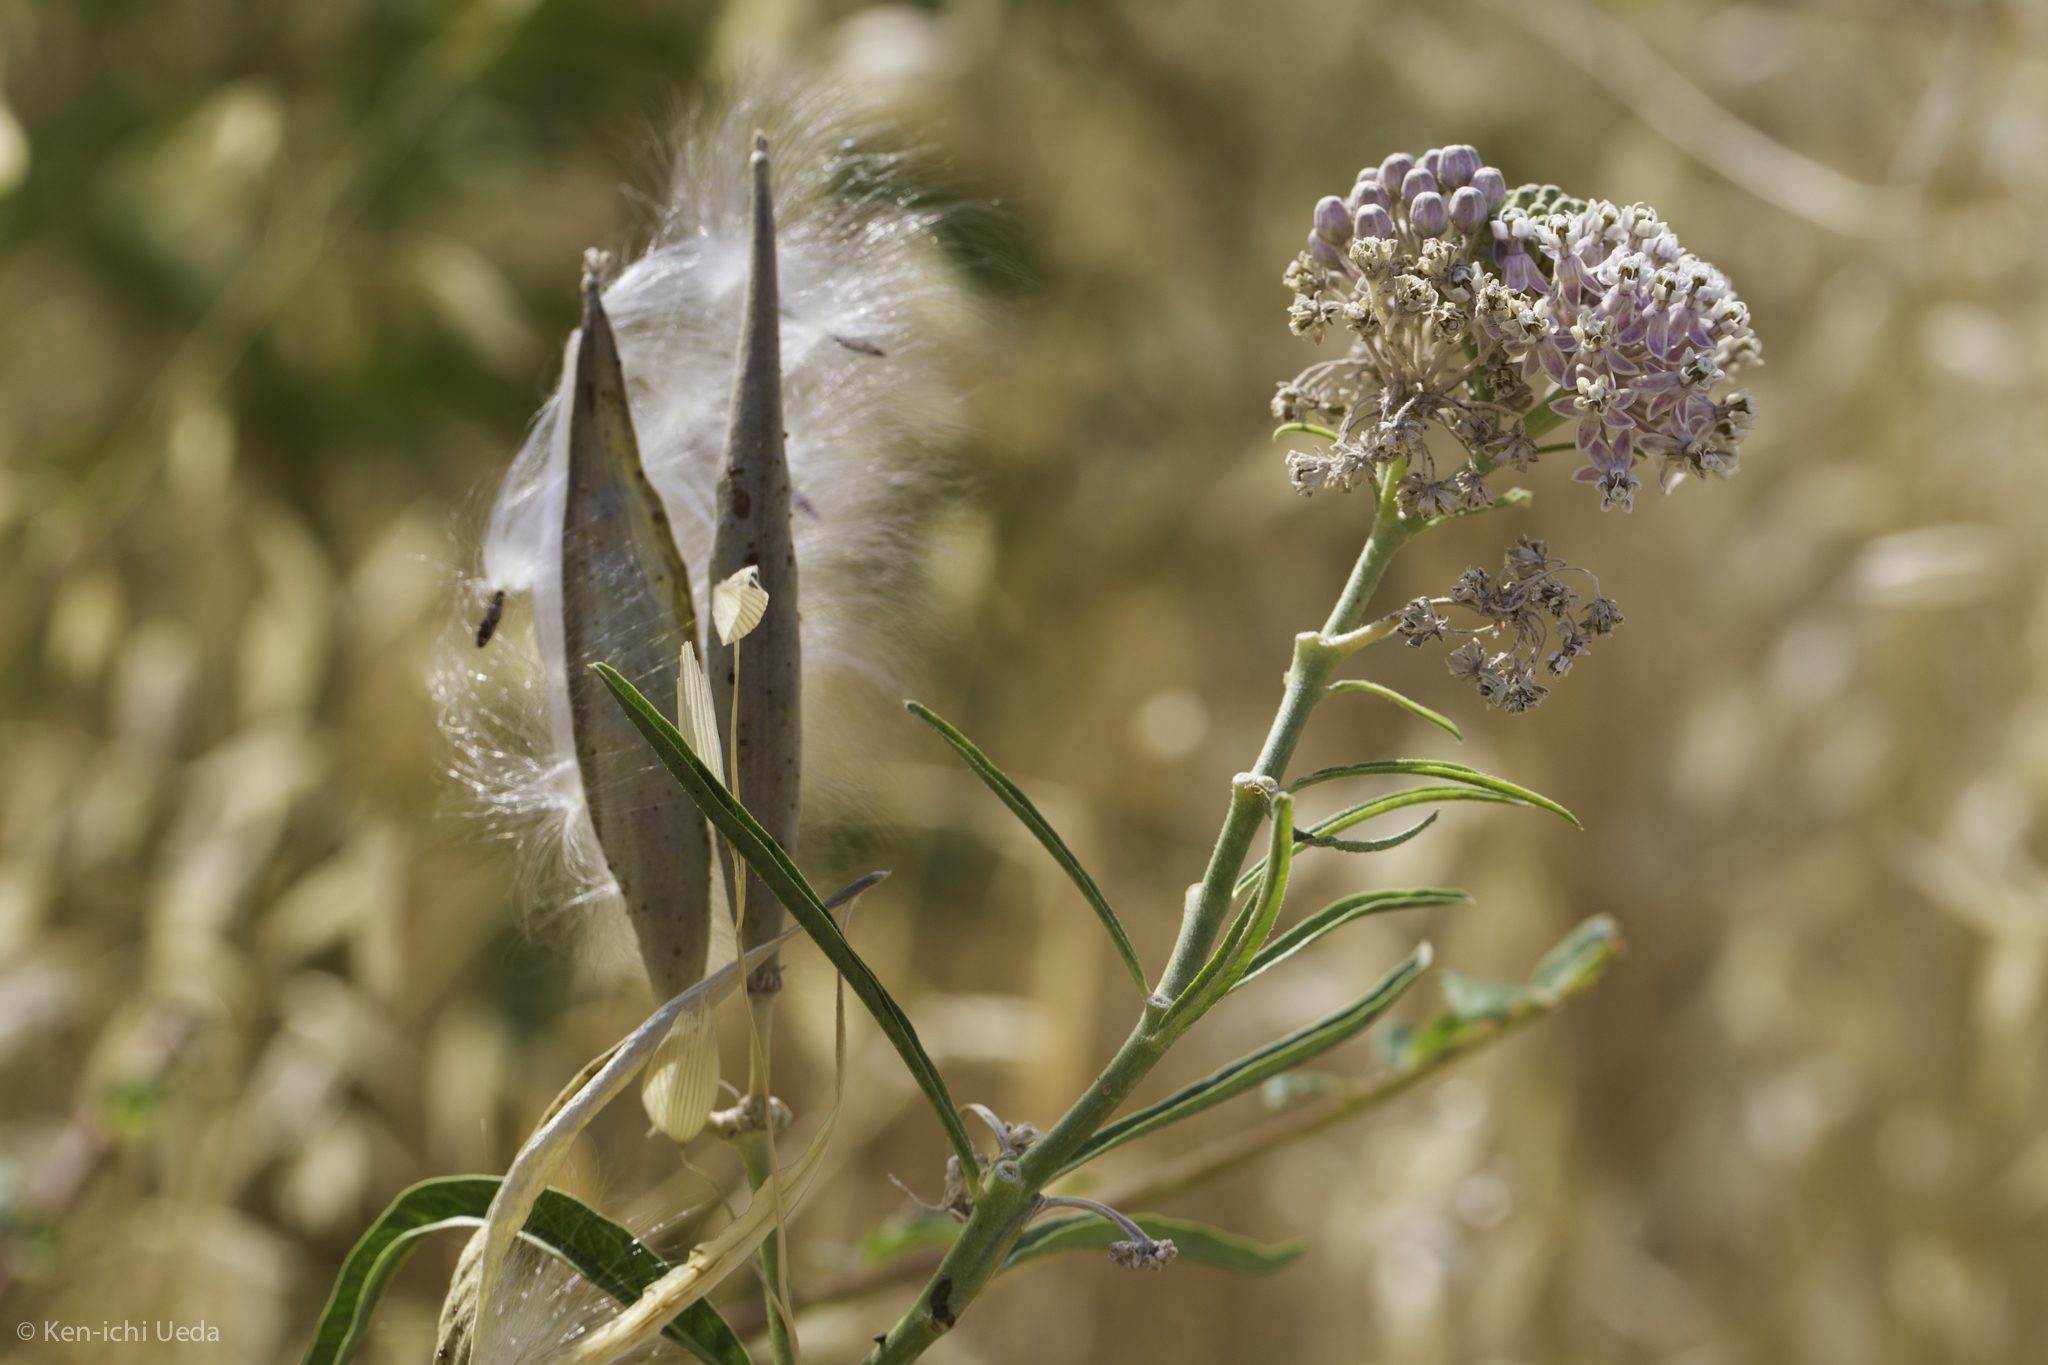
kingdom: Plantae
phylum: Tracheophyta
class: Magnoliopsida
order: Gentianales
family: Apocynaceae
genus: Asclepias
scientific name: Asclepias fascicularis
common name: Mexican milkweed
